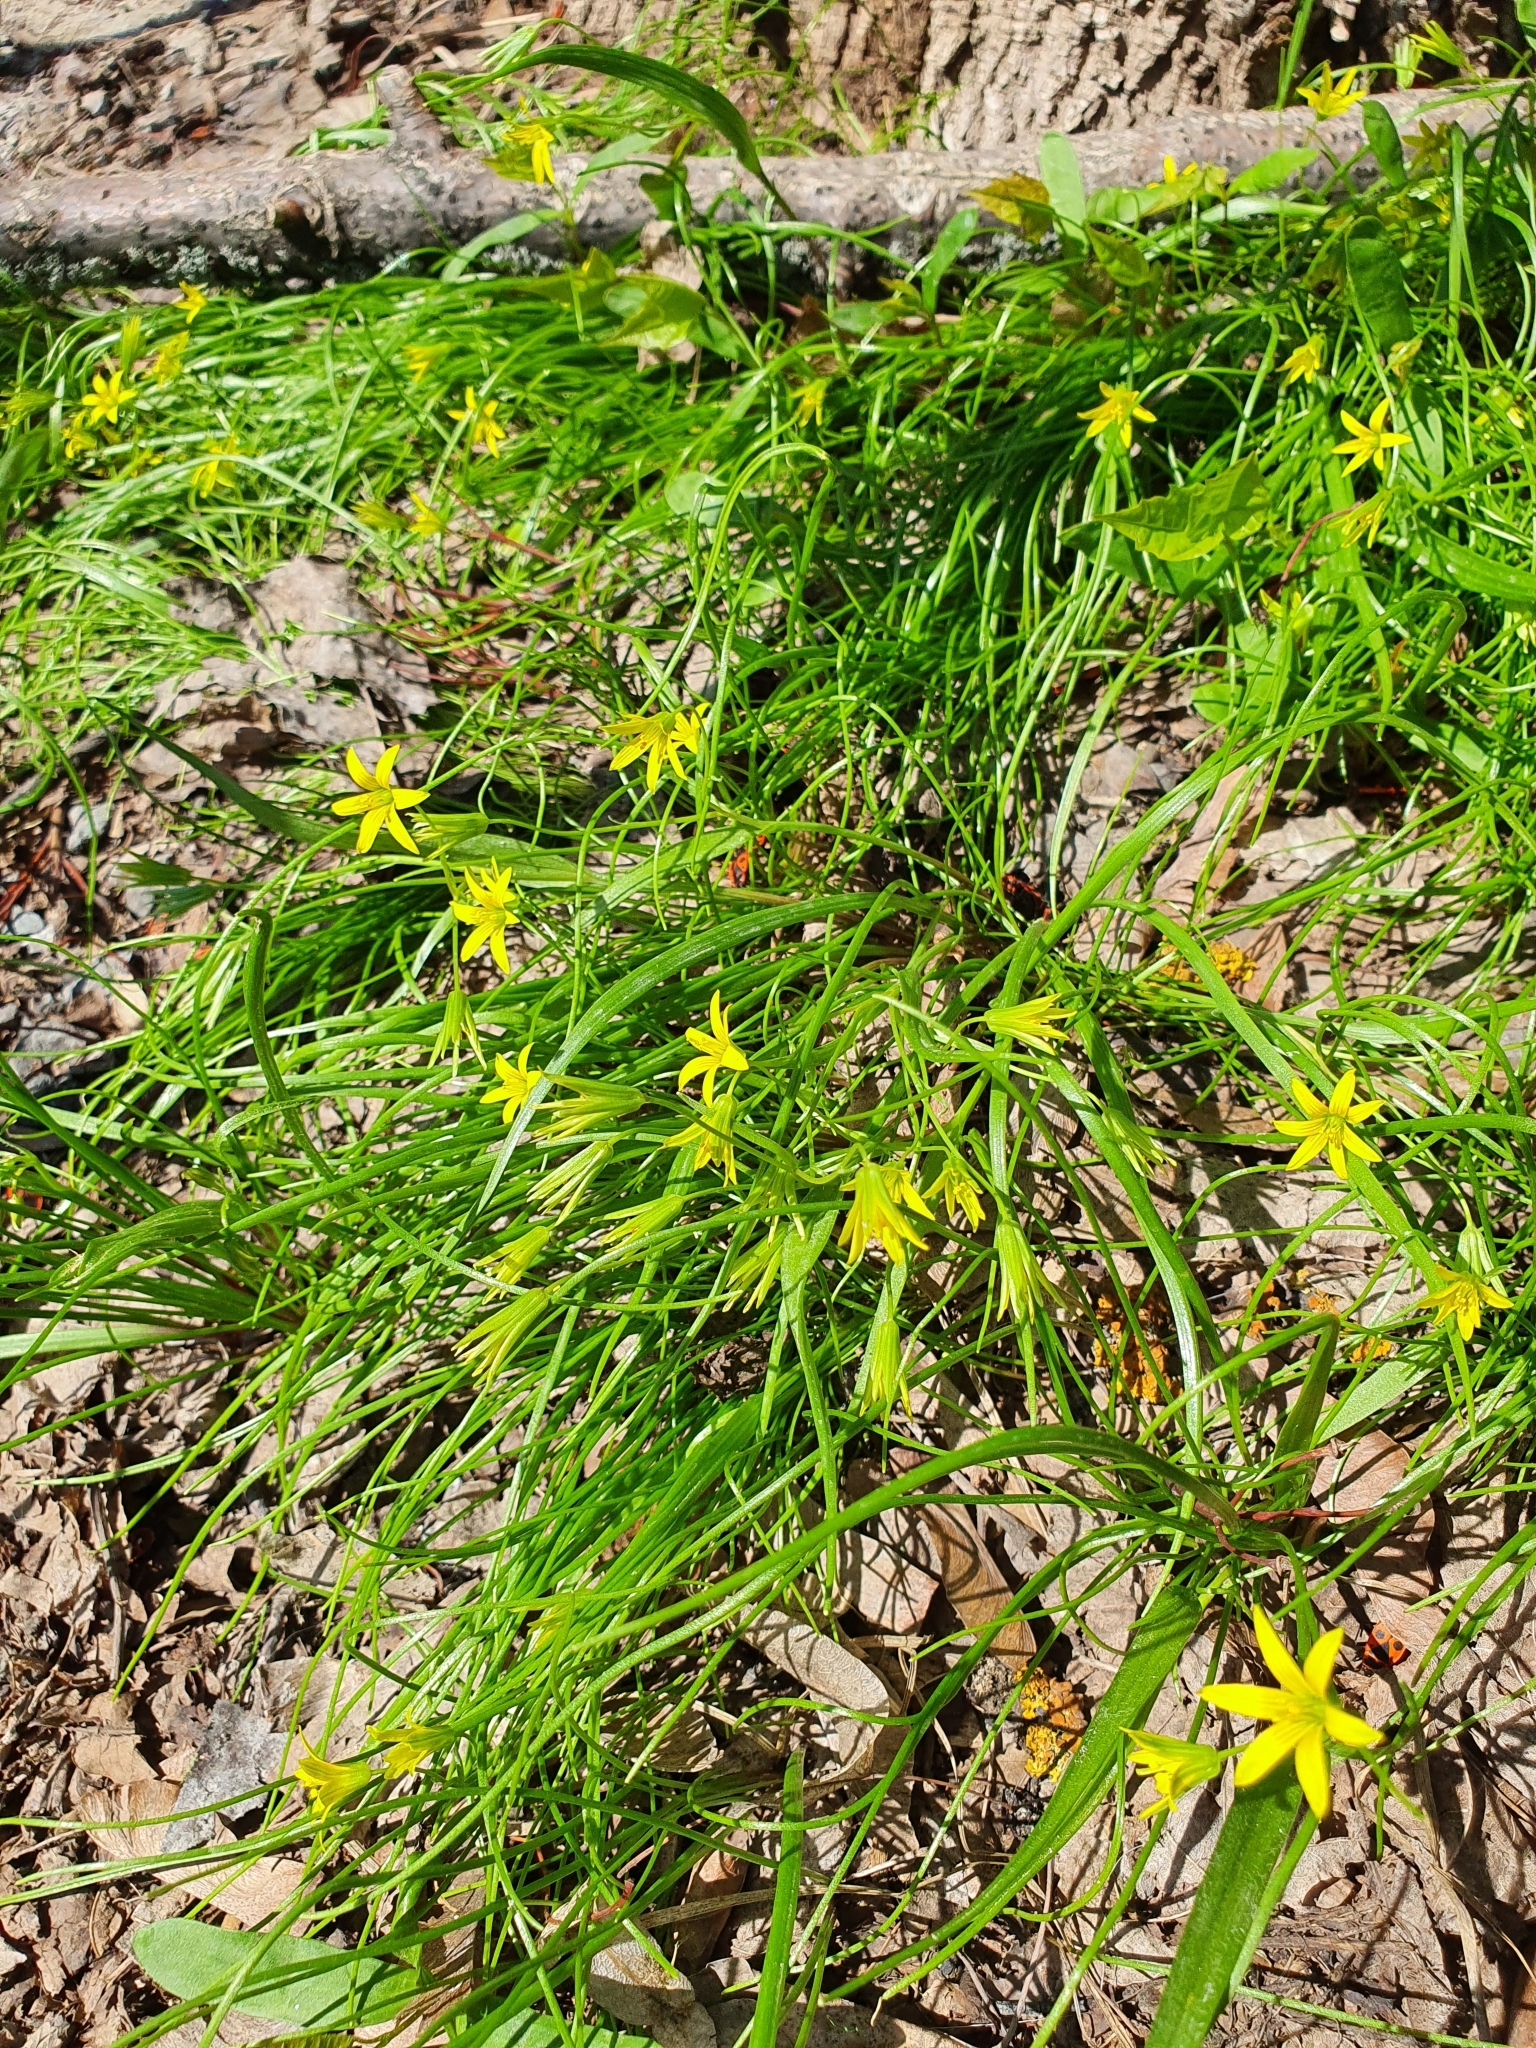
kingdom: Plantae
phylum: Tracheophyta
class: Liliopsida
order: Liliales
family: Liliaceae
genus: Gagea
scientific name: Gagea minima
